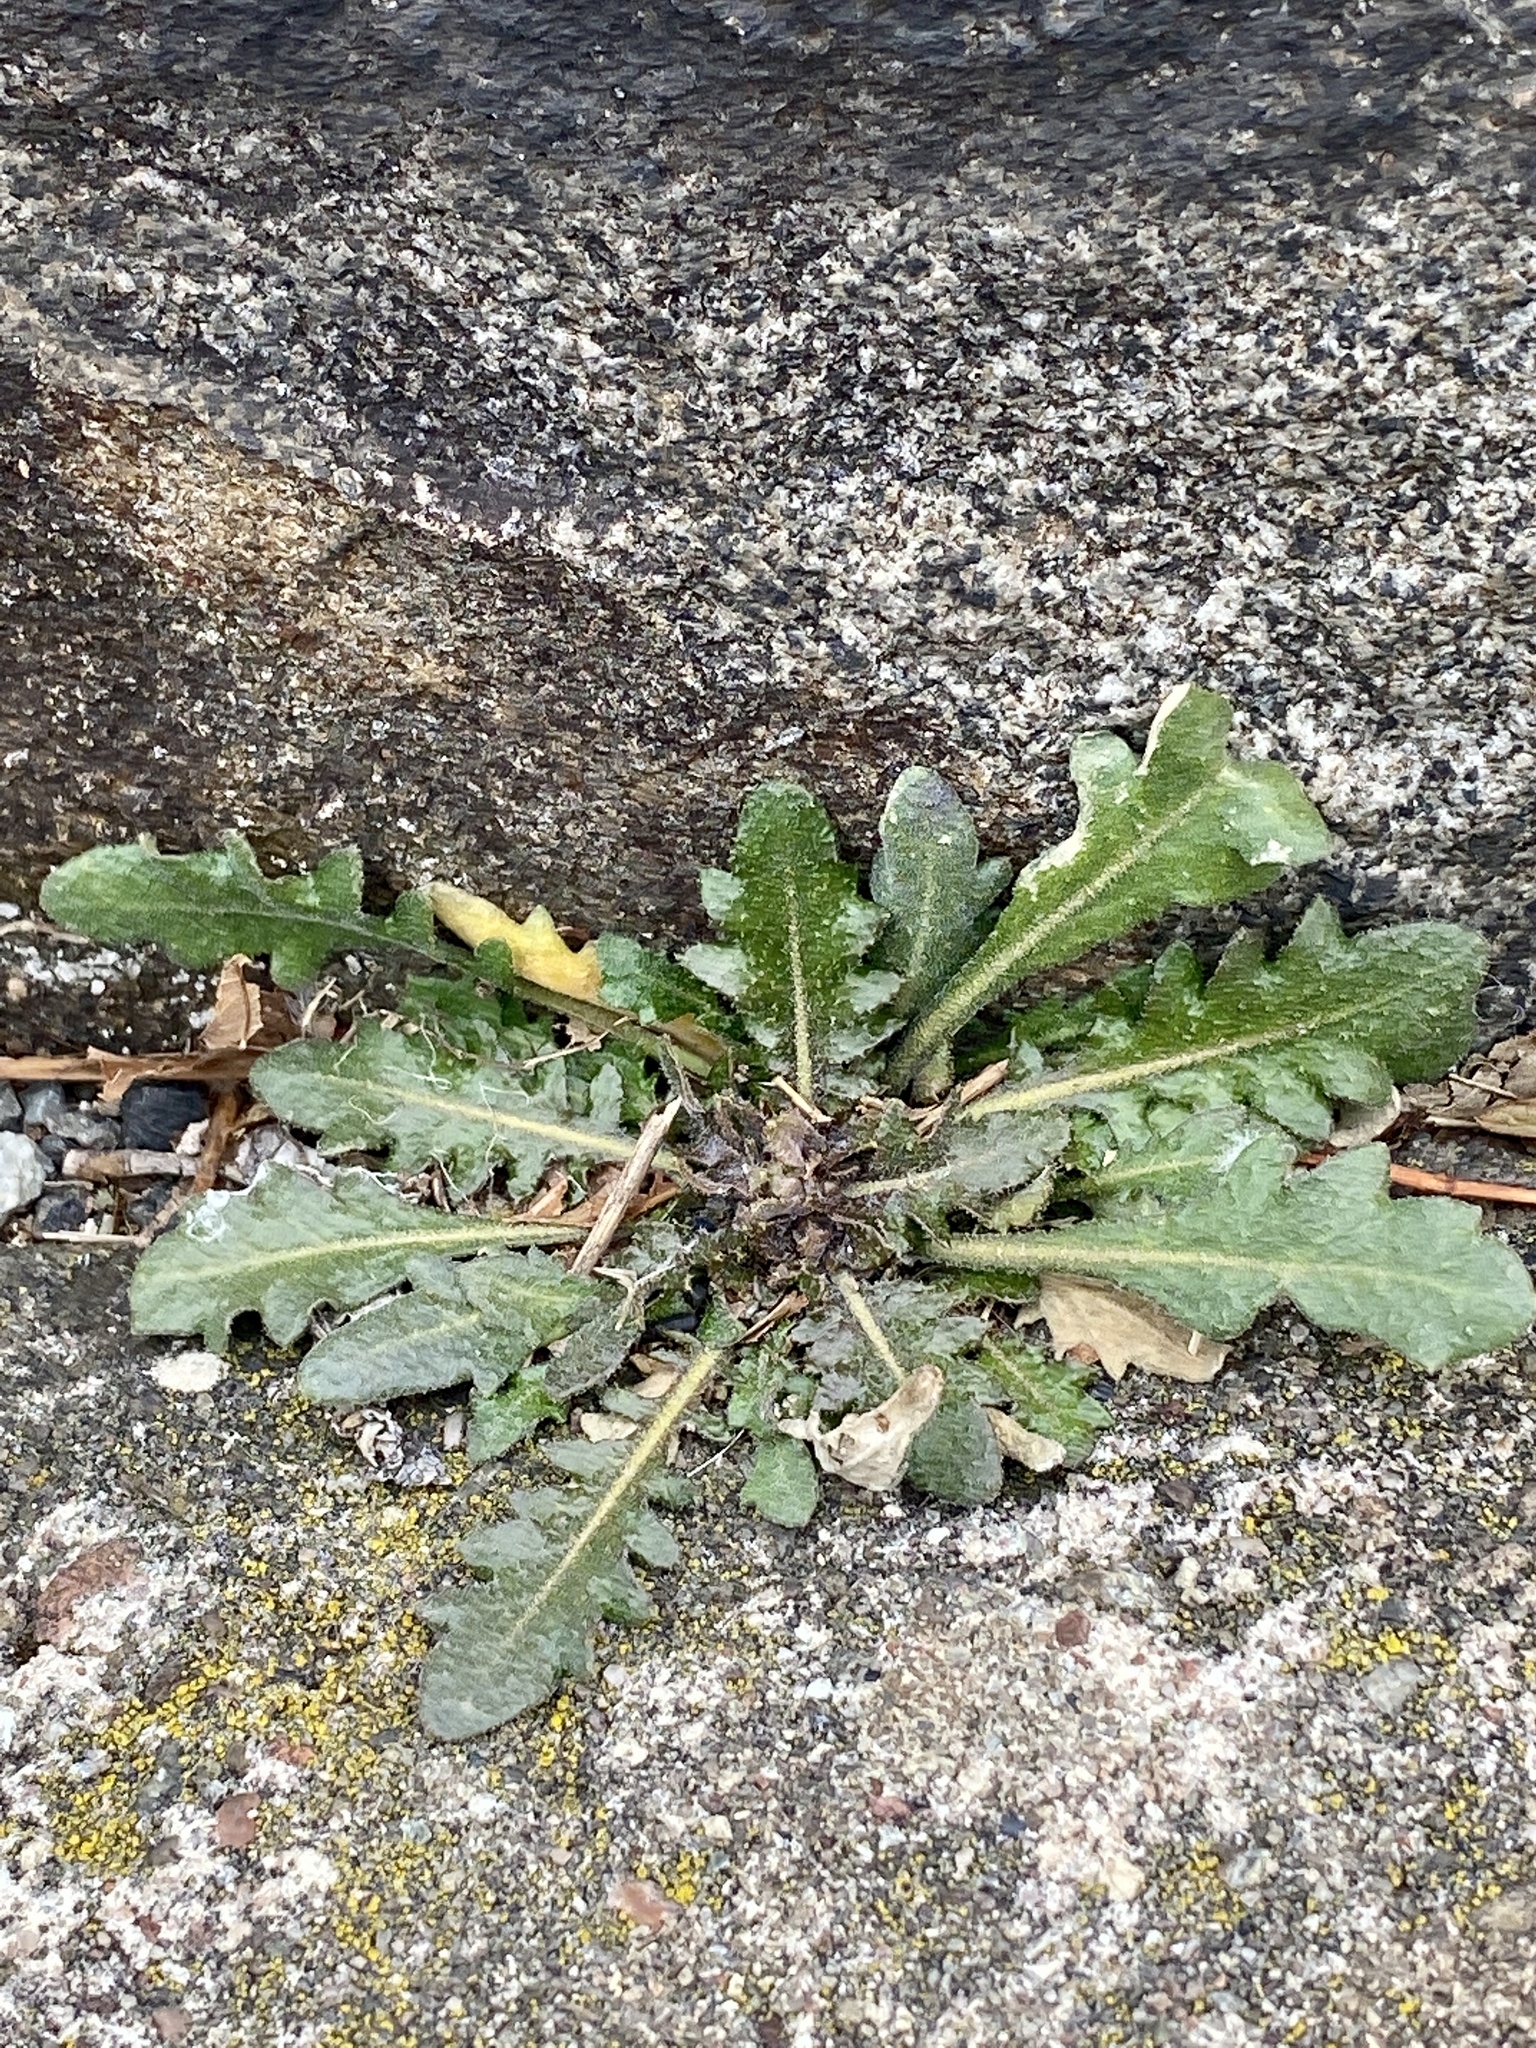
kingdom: Plantae
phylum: Tracheophyta
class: Magnoliopsida
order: Brassicales
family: Brassicaceae
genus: Arabidopsis
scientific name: Arabidopsis lyrata
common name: Lyrate rockcress
